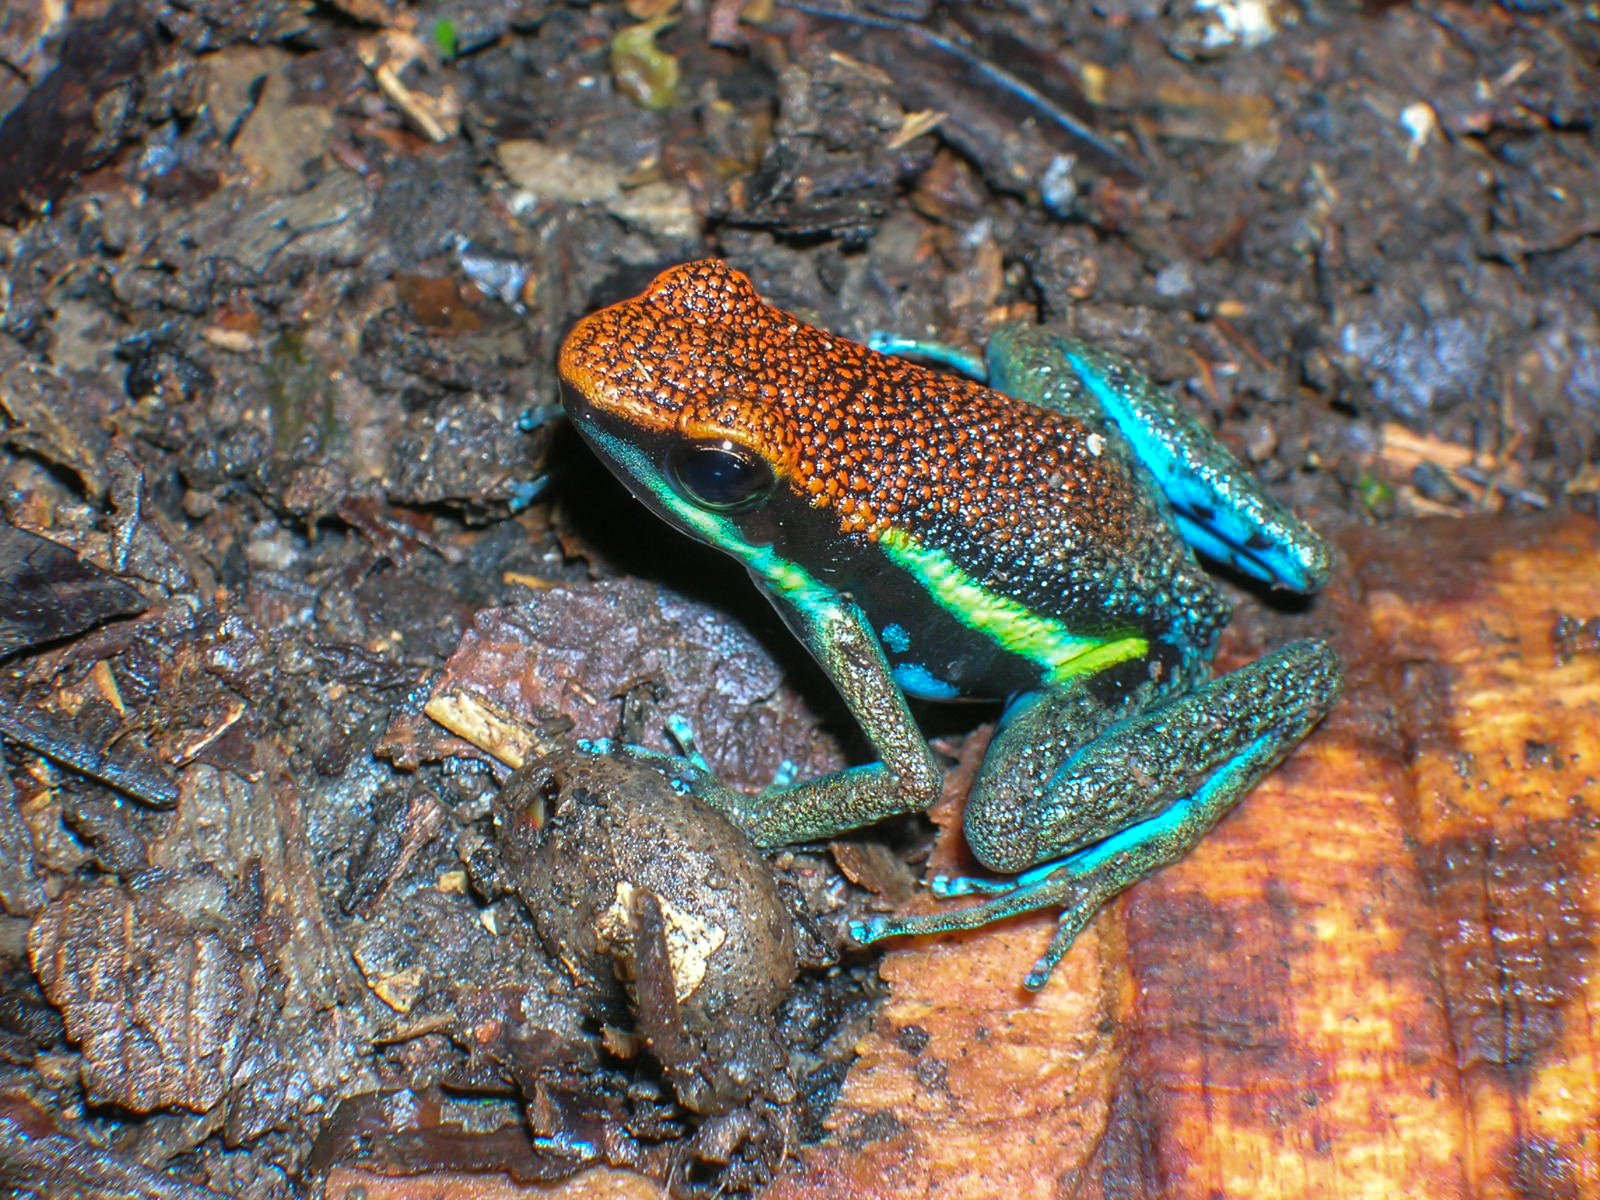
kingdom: Animalia
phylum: Chordata
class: Amphibia
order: Anura
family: Dendrobatidae
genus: Ameerega
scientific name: Ameerega macero
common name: Manu poison frog
